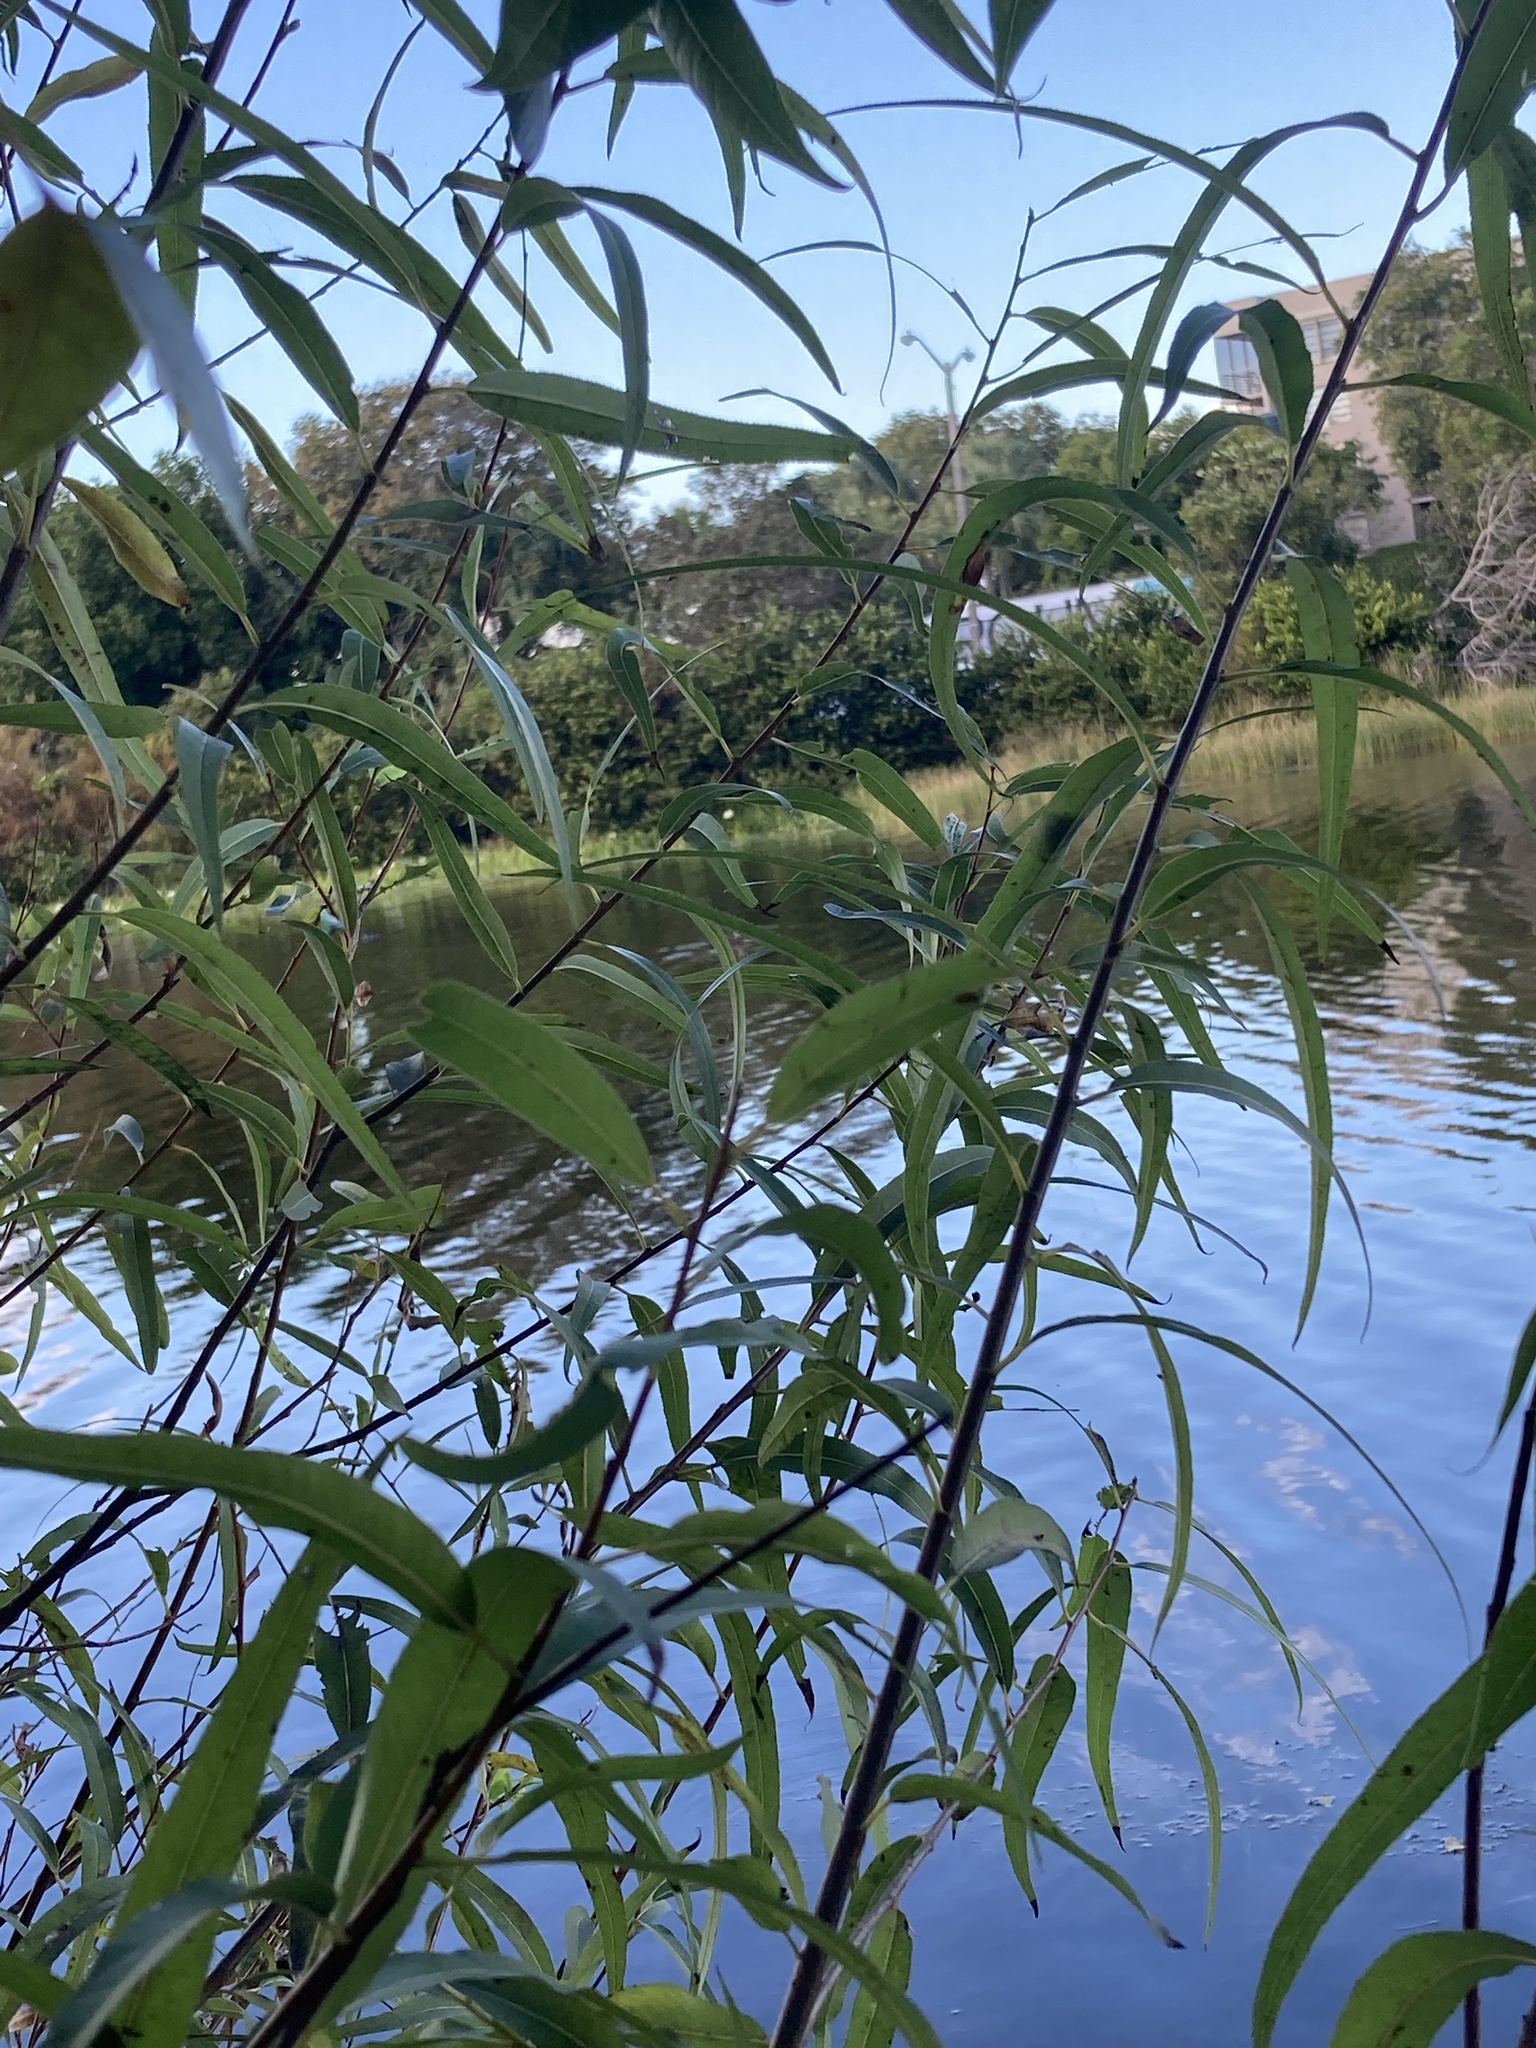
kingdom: Plantae
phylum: Tracheophyta
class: Magnoliopsida
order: Malpighiales
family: Salicaceae
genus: Salix
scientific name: Salix caroliniana
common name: Carolina willow
